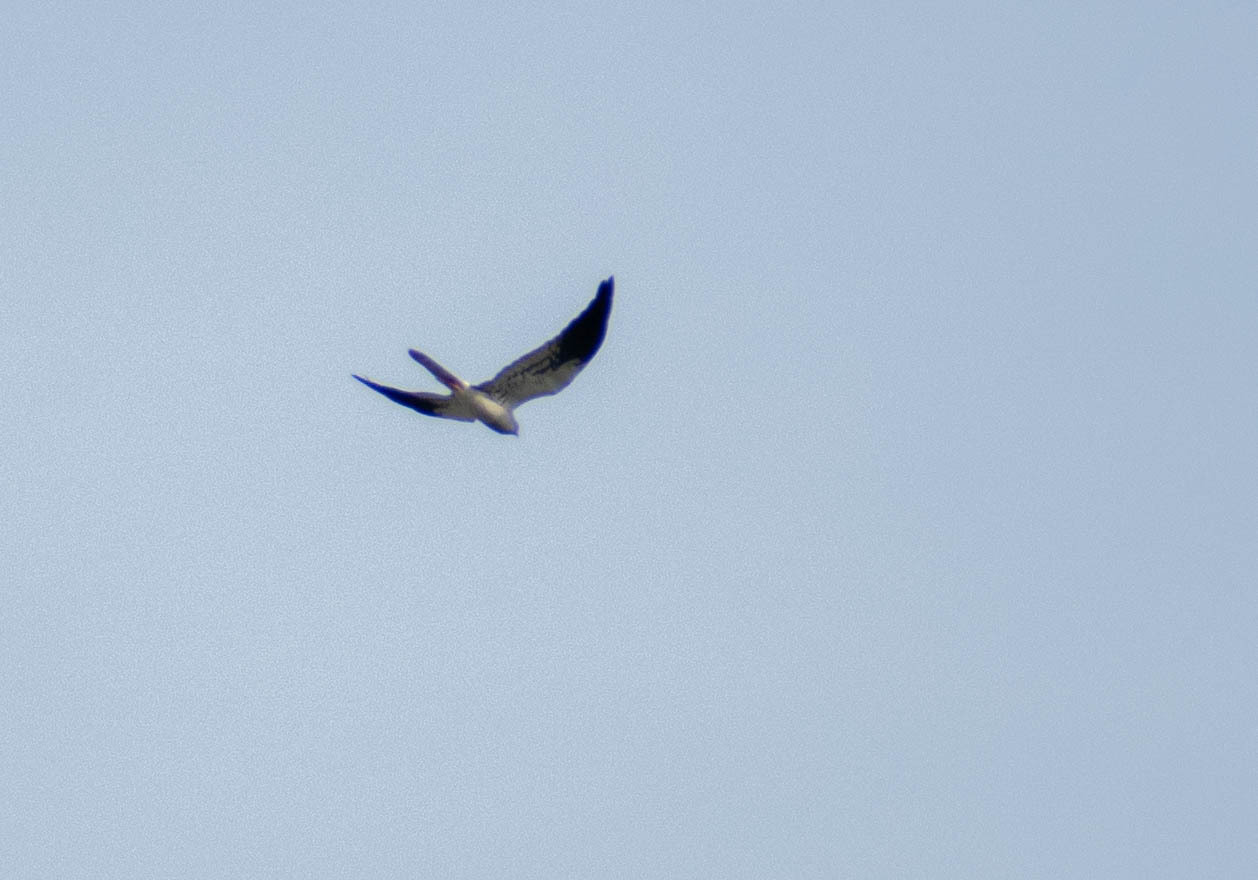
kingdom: Animalia
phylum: Chordata
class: Aves
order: Accipitriformes
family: Accipitridae
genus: Circus
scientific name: Circus pygargus
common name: Montagu's harrier
